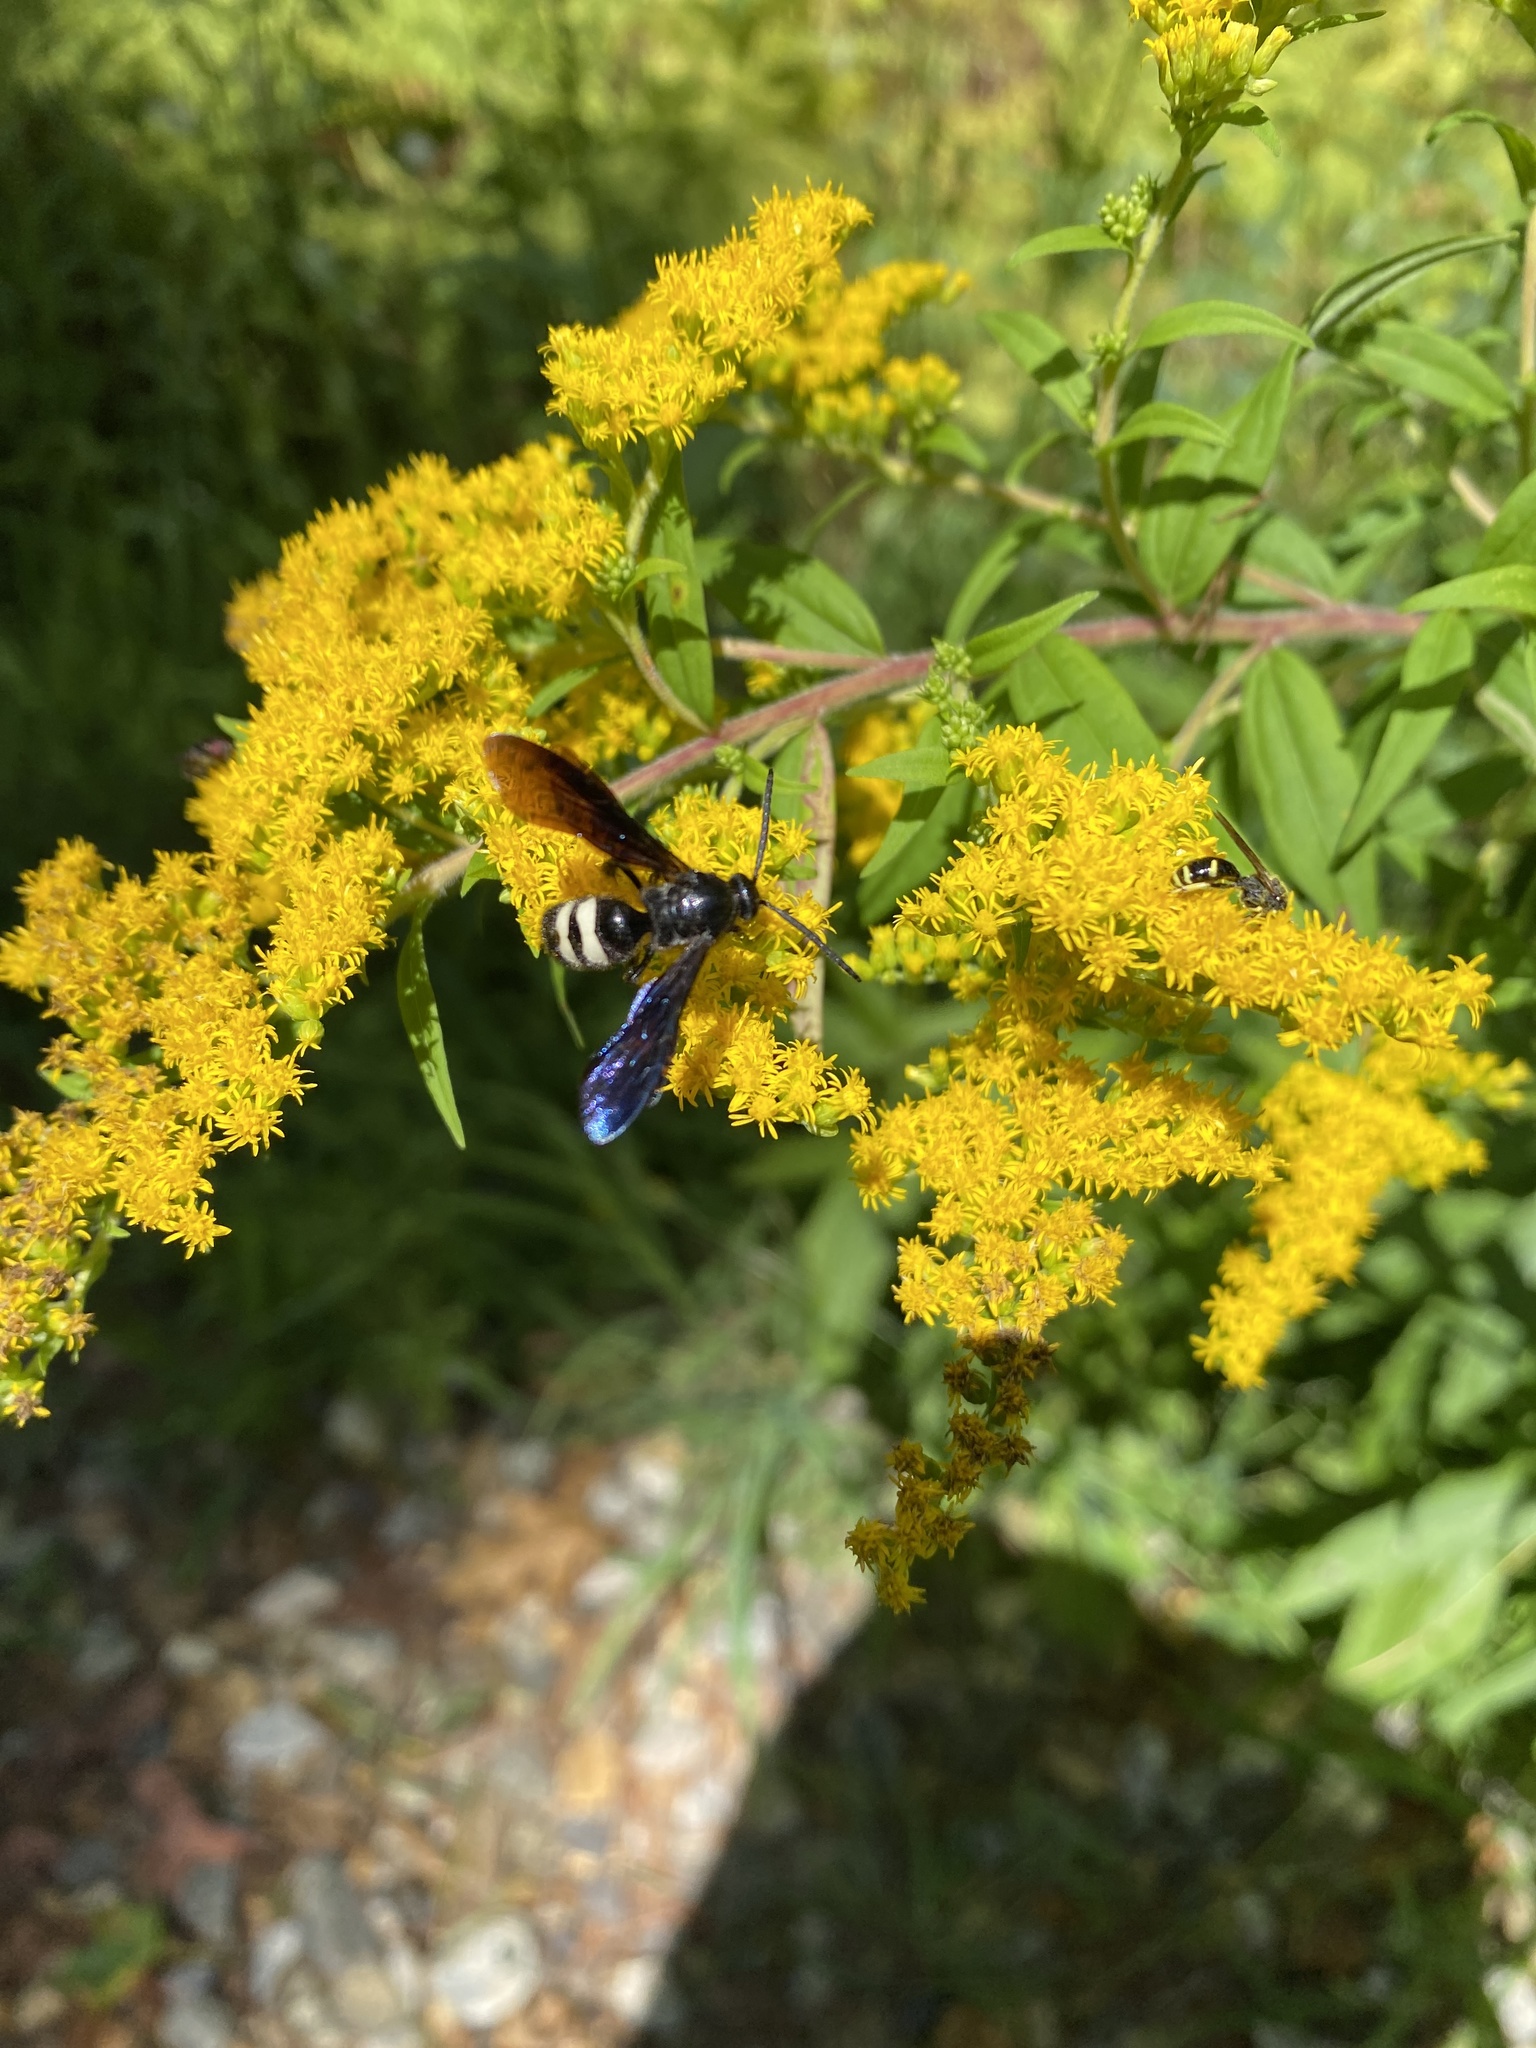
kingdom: Animalia
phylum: Arthropoda
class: Insecta
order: Hymenoptera
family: Scoliidae
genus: Scolia
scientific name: Scolia bicincta
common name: Double-banded scoliid wasp
